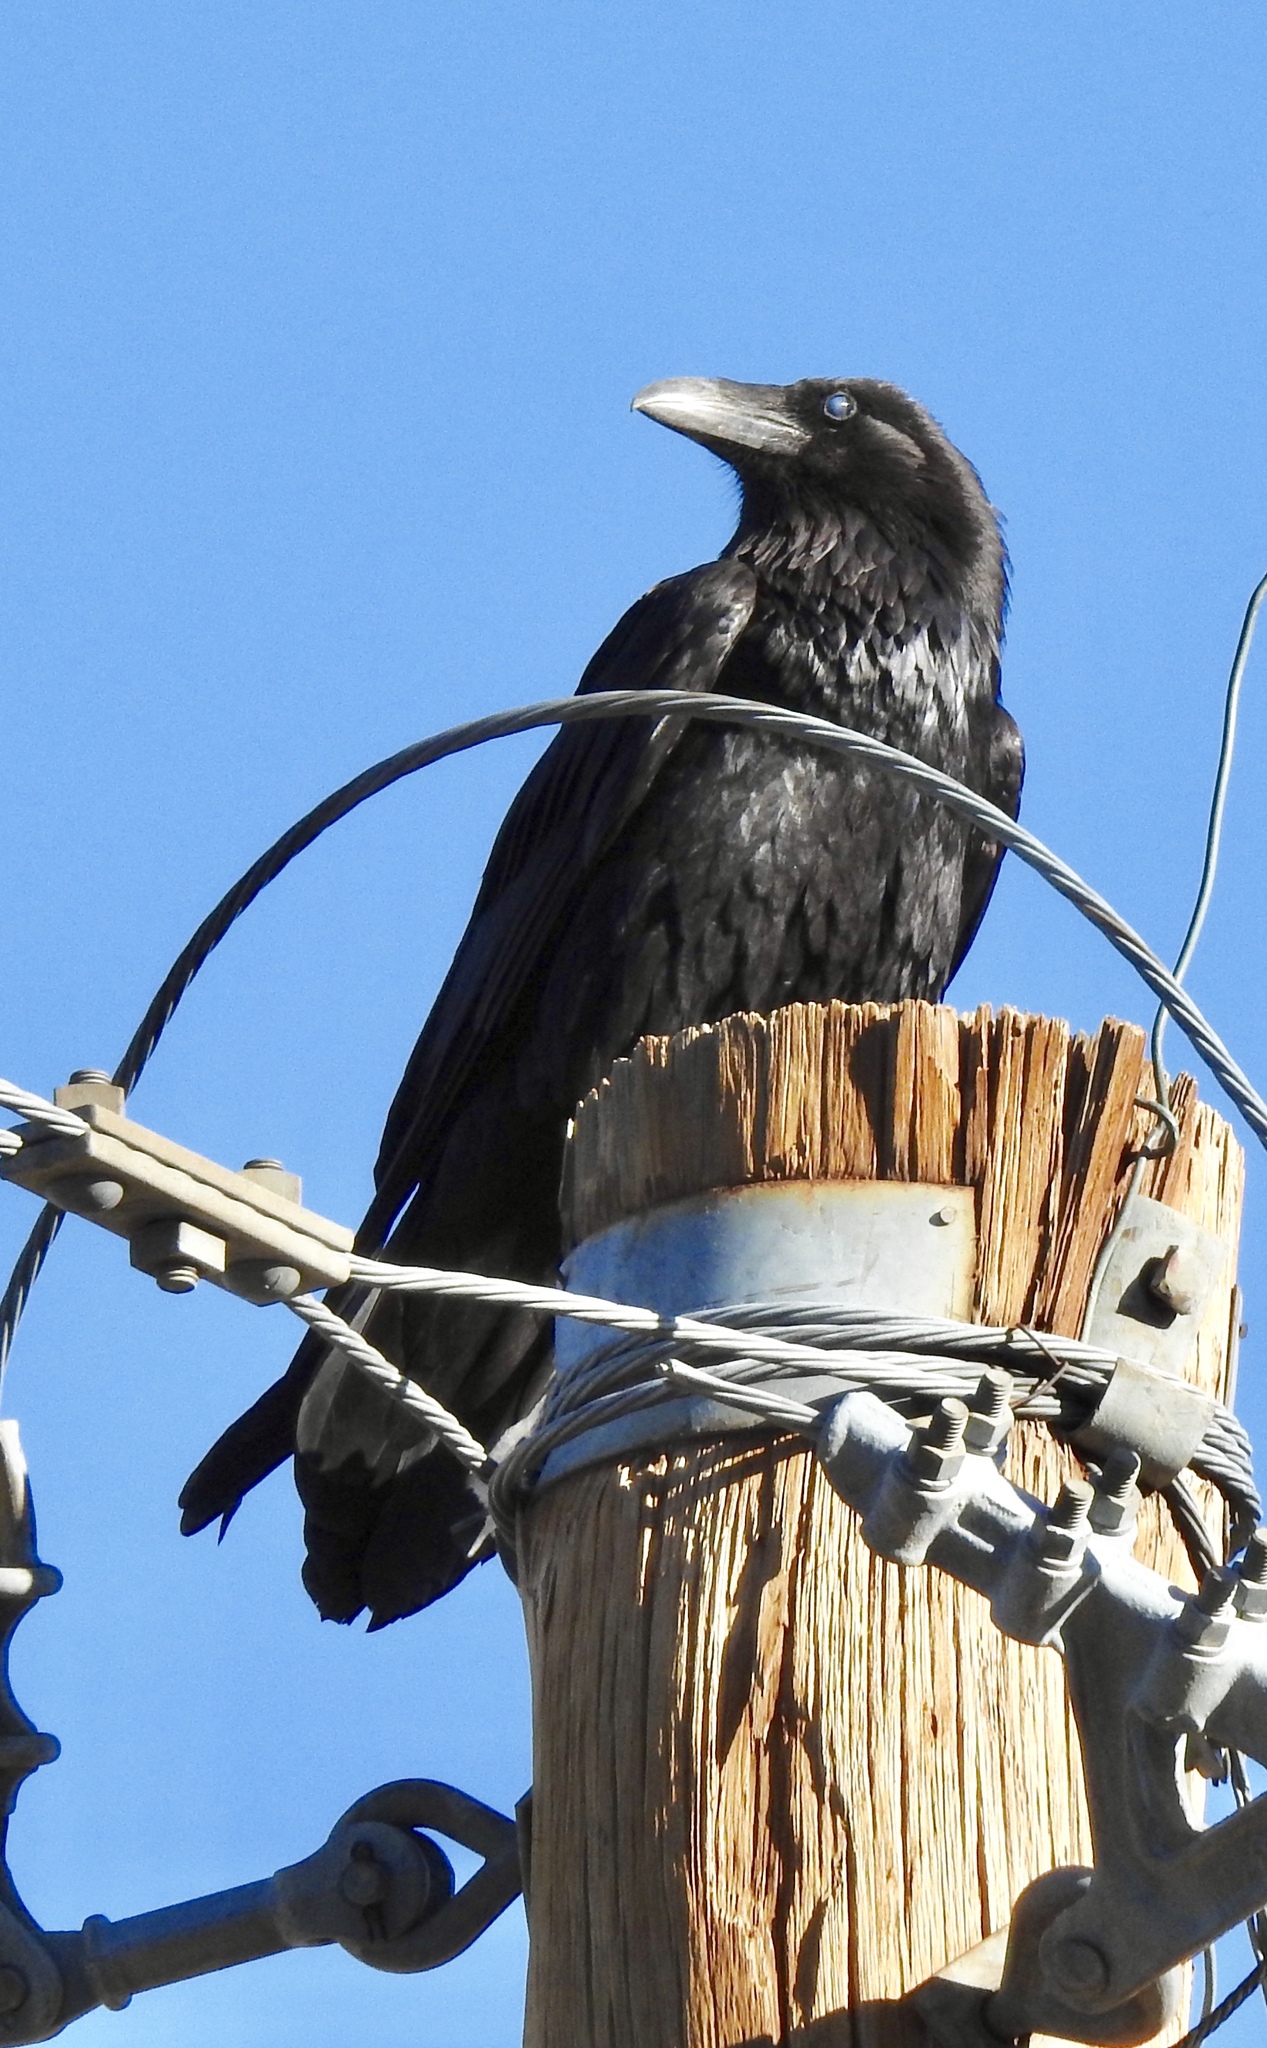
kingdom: Animalia
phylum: Chordata
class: Aves
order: Passeriformes
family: Corvidae
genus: Corvus
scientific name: Corvus corax
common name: Common raven
